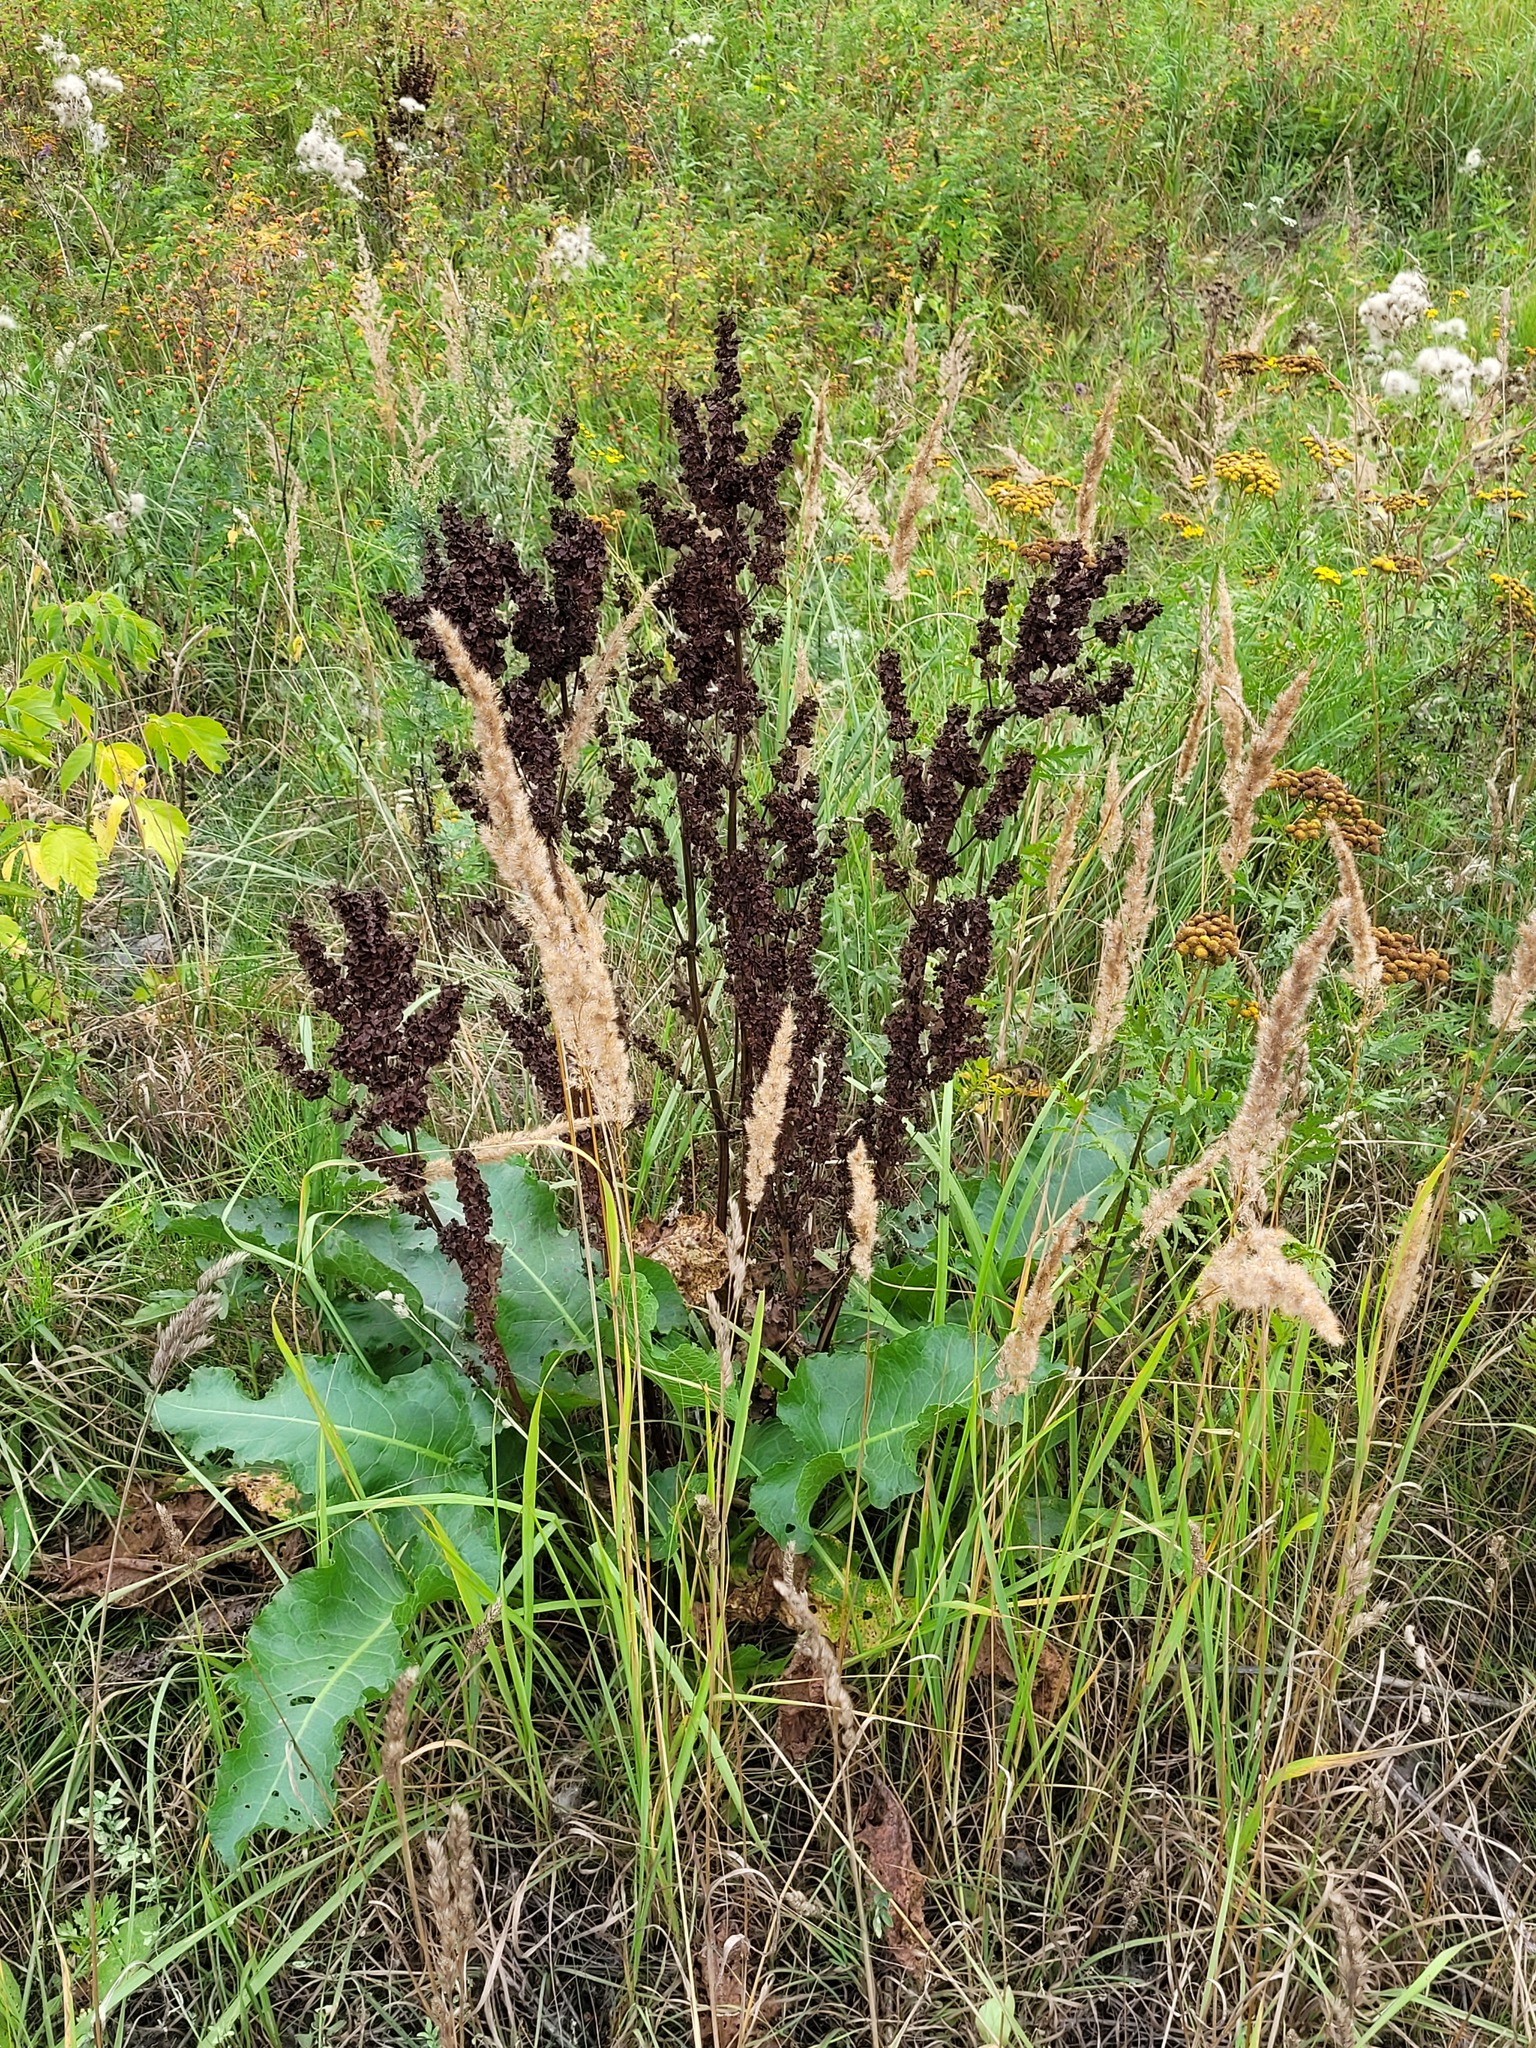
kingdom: Plantae
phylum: Tracheophyta
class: Magnoliopsida
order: Caryophyllales
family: Polygonaceae
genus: Rumex
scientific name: Rumex confertus
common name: Russian dock
